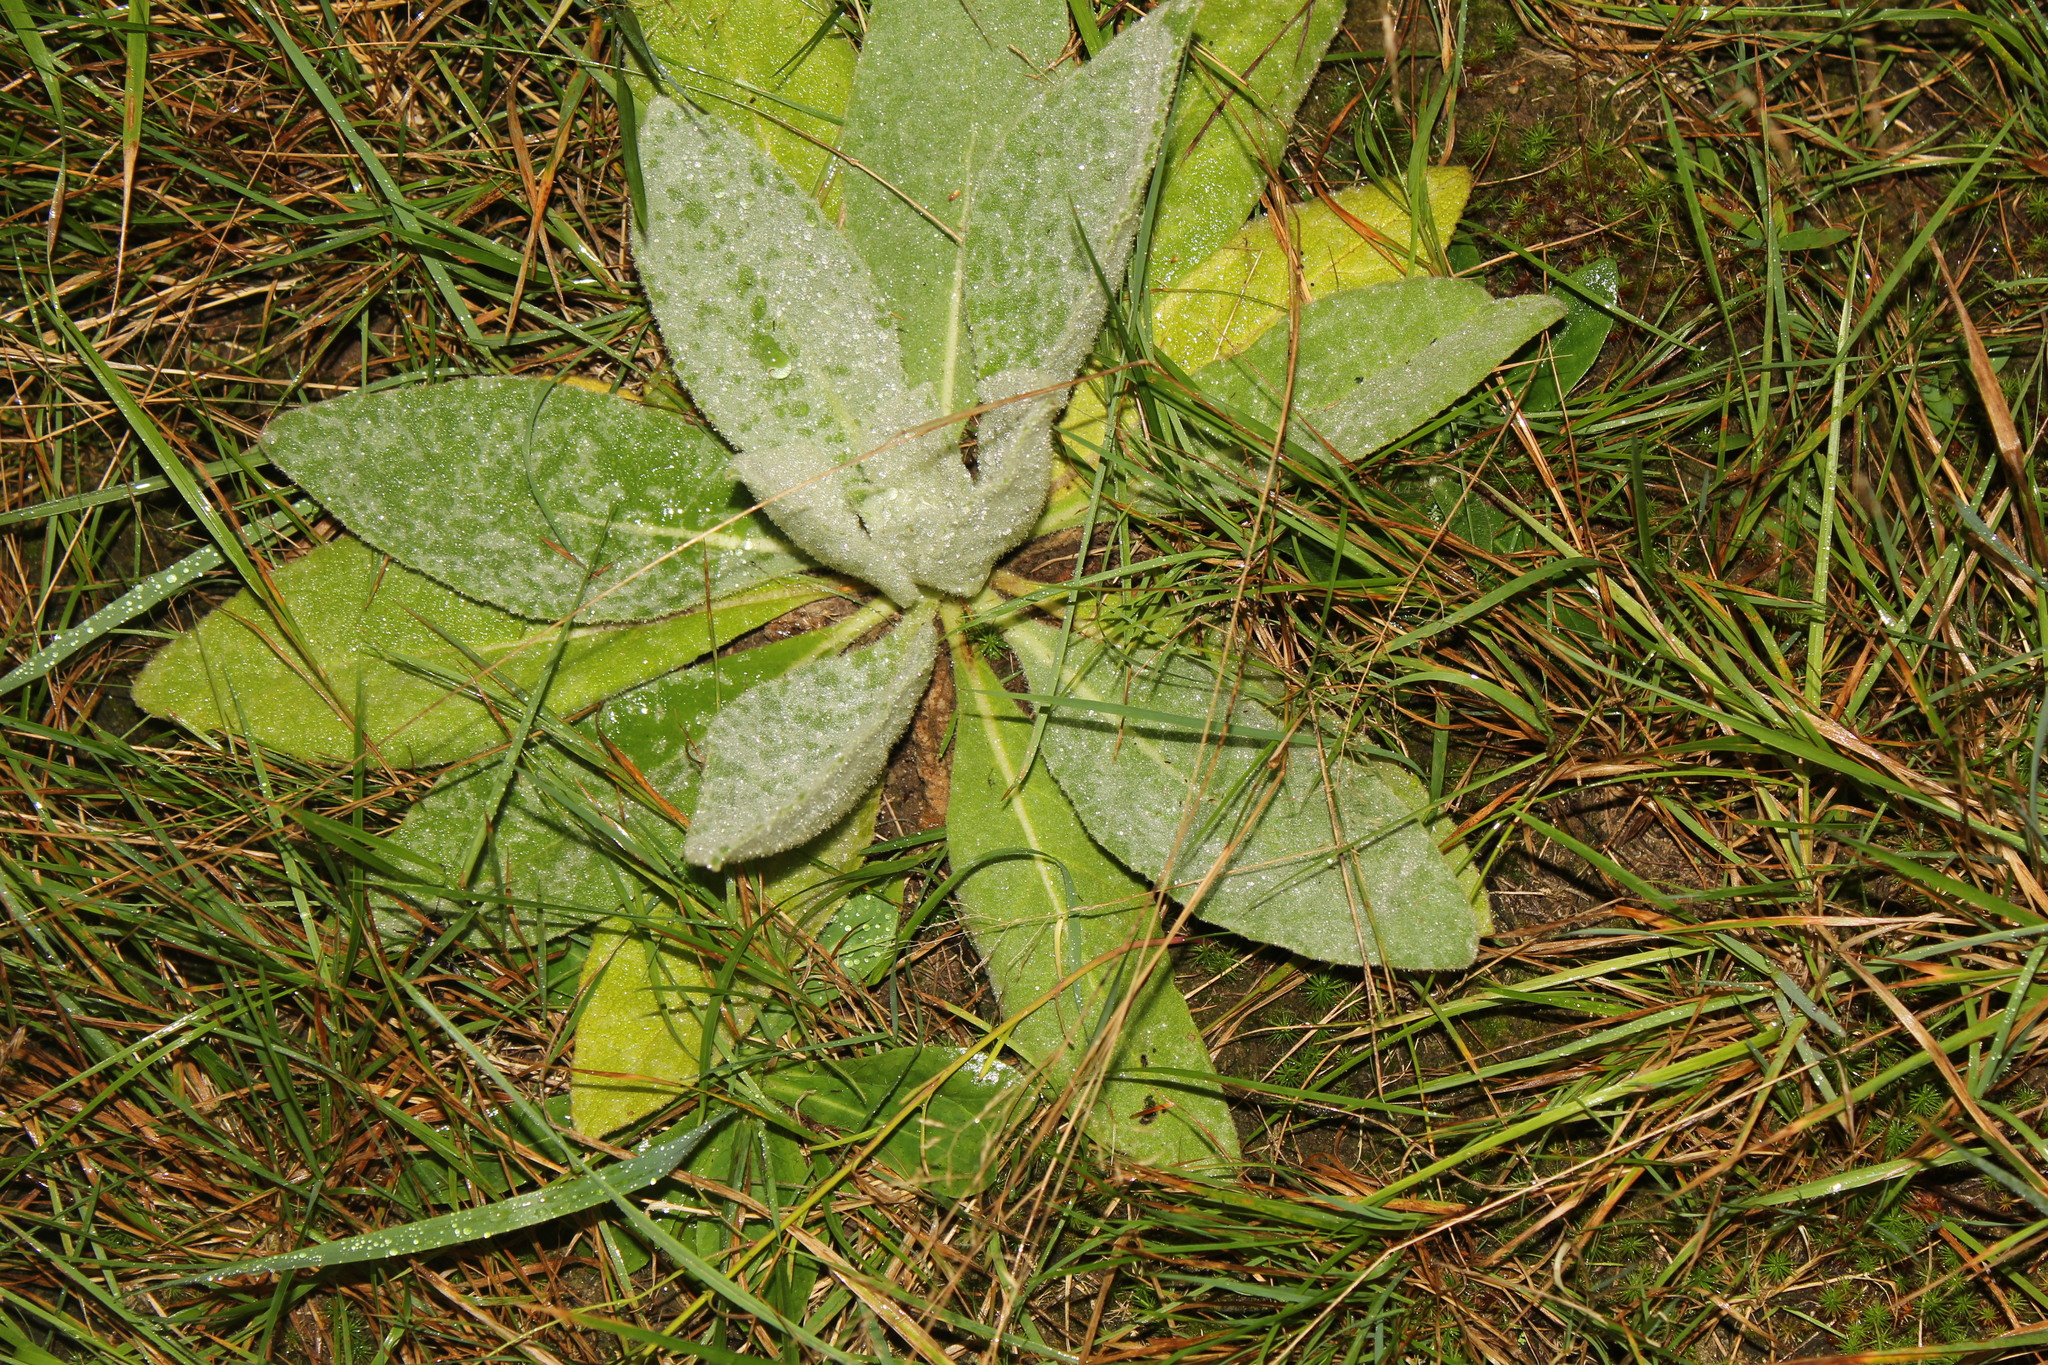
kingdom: Plantae
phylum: Tracheophyta
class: Magnoliopsida
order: Lamiales
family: Scrophulariaceae
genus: Verbascum
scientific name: Verbascum thapsus
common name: Common mullein
